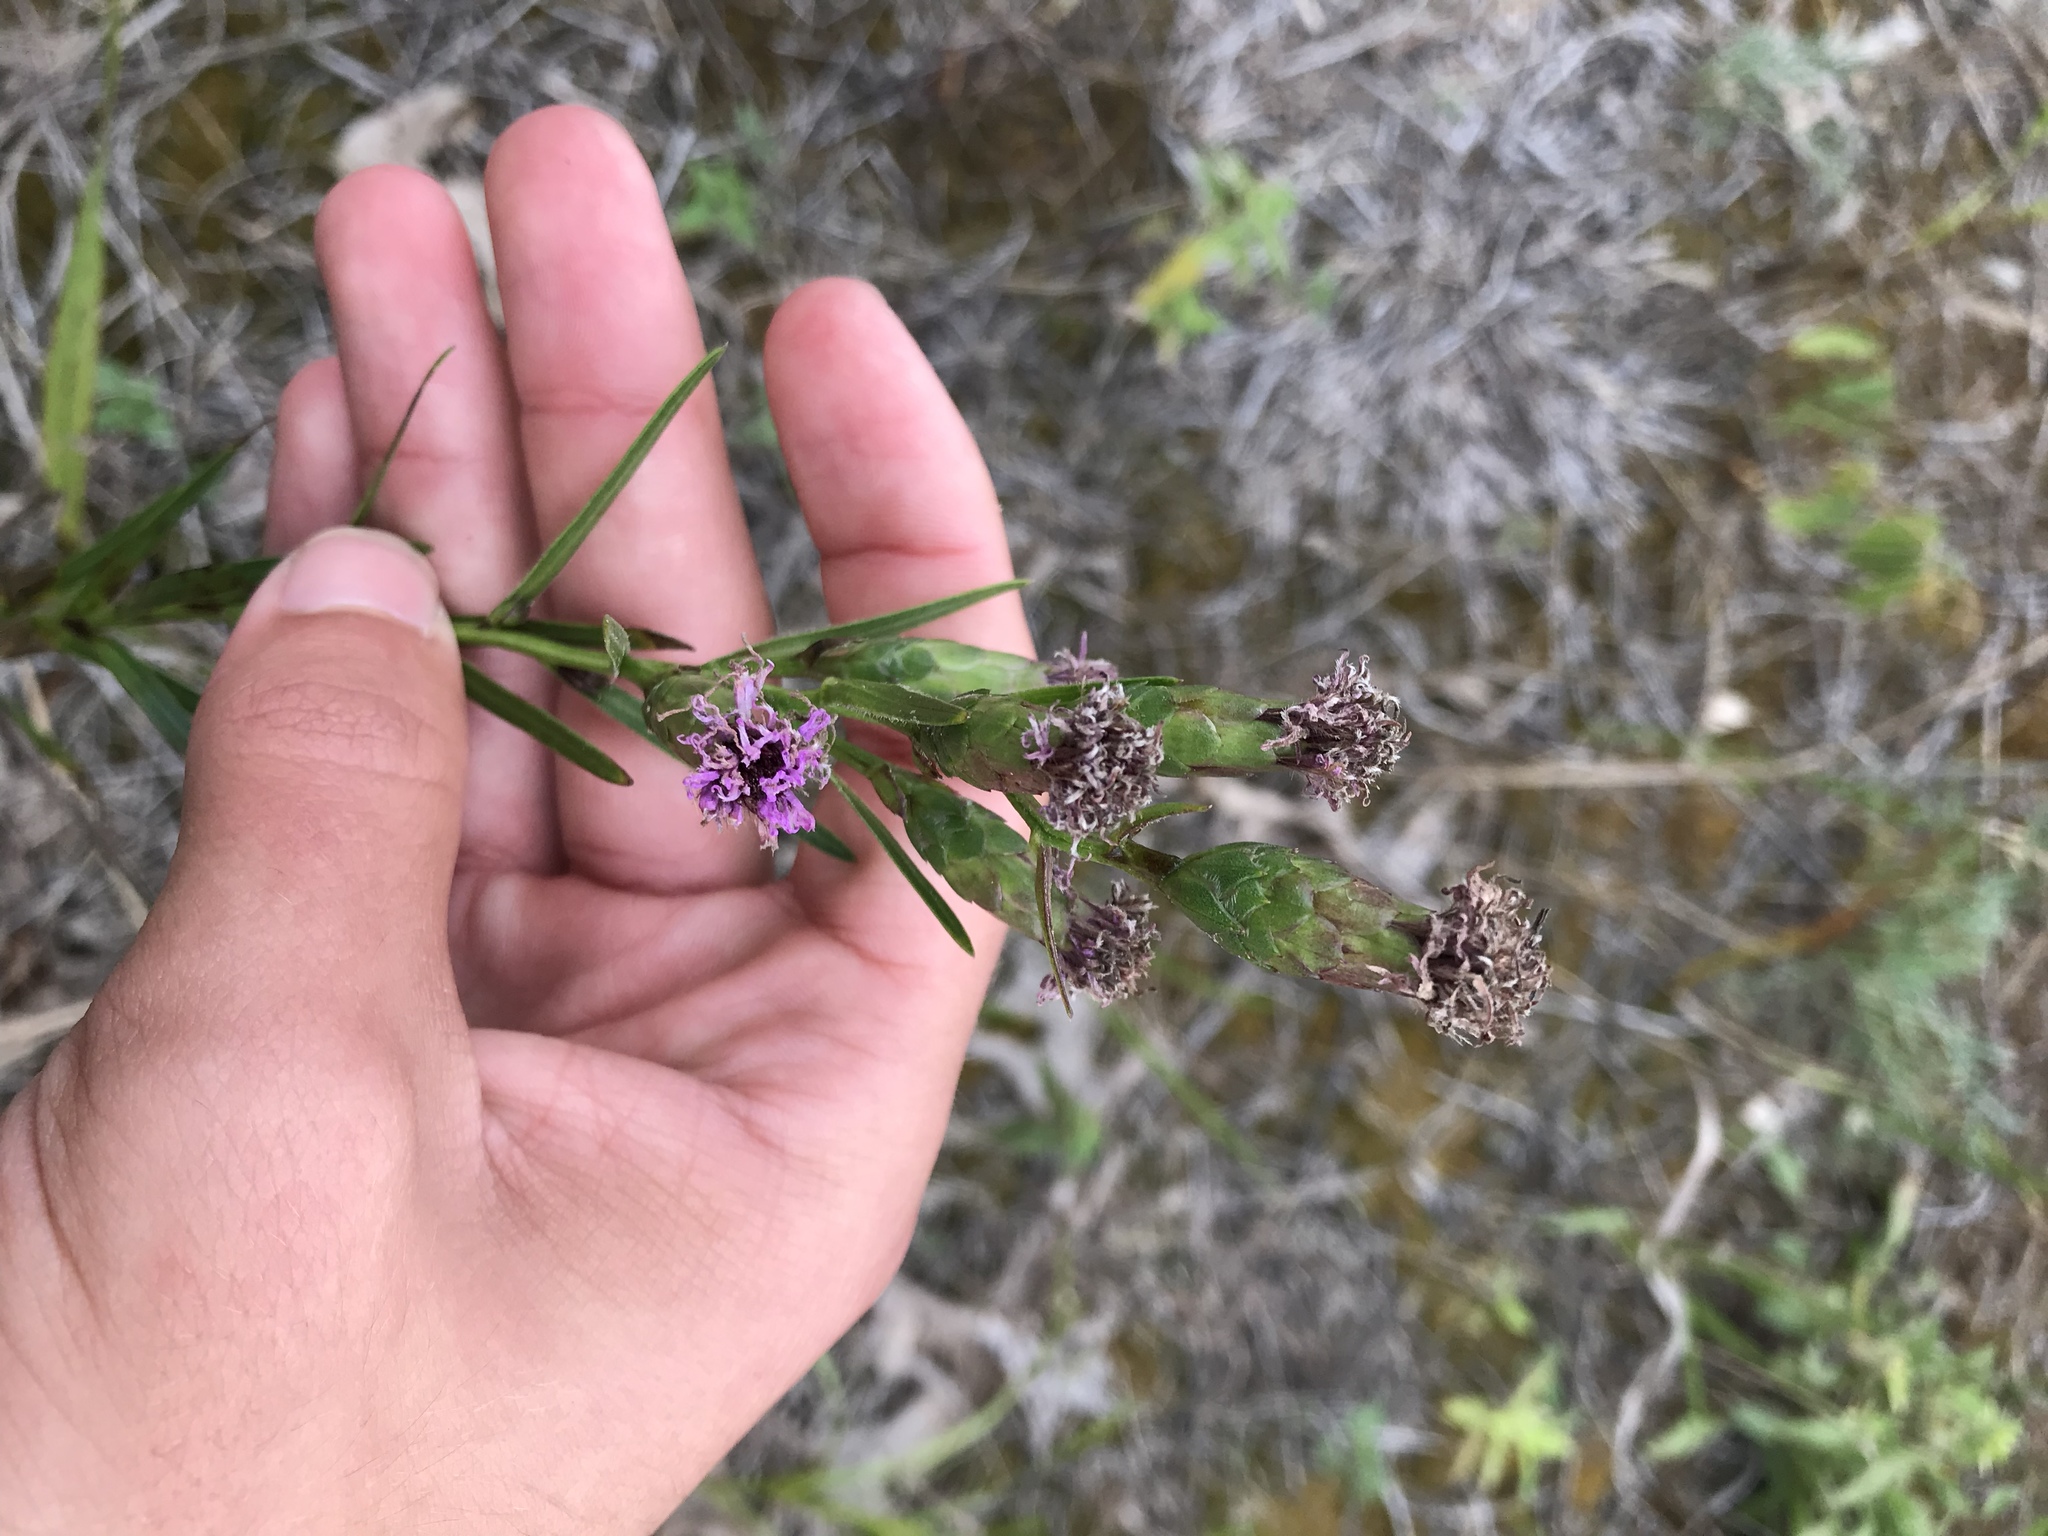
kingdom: Plantae
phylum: Tracheophyta
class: Magnoliopsida
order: Asterales
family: Asteraceae
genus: Liatris
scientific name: Liatris cylindracea
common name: Few-head blazingstar
